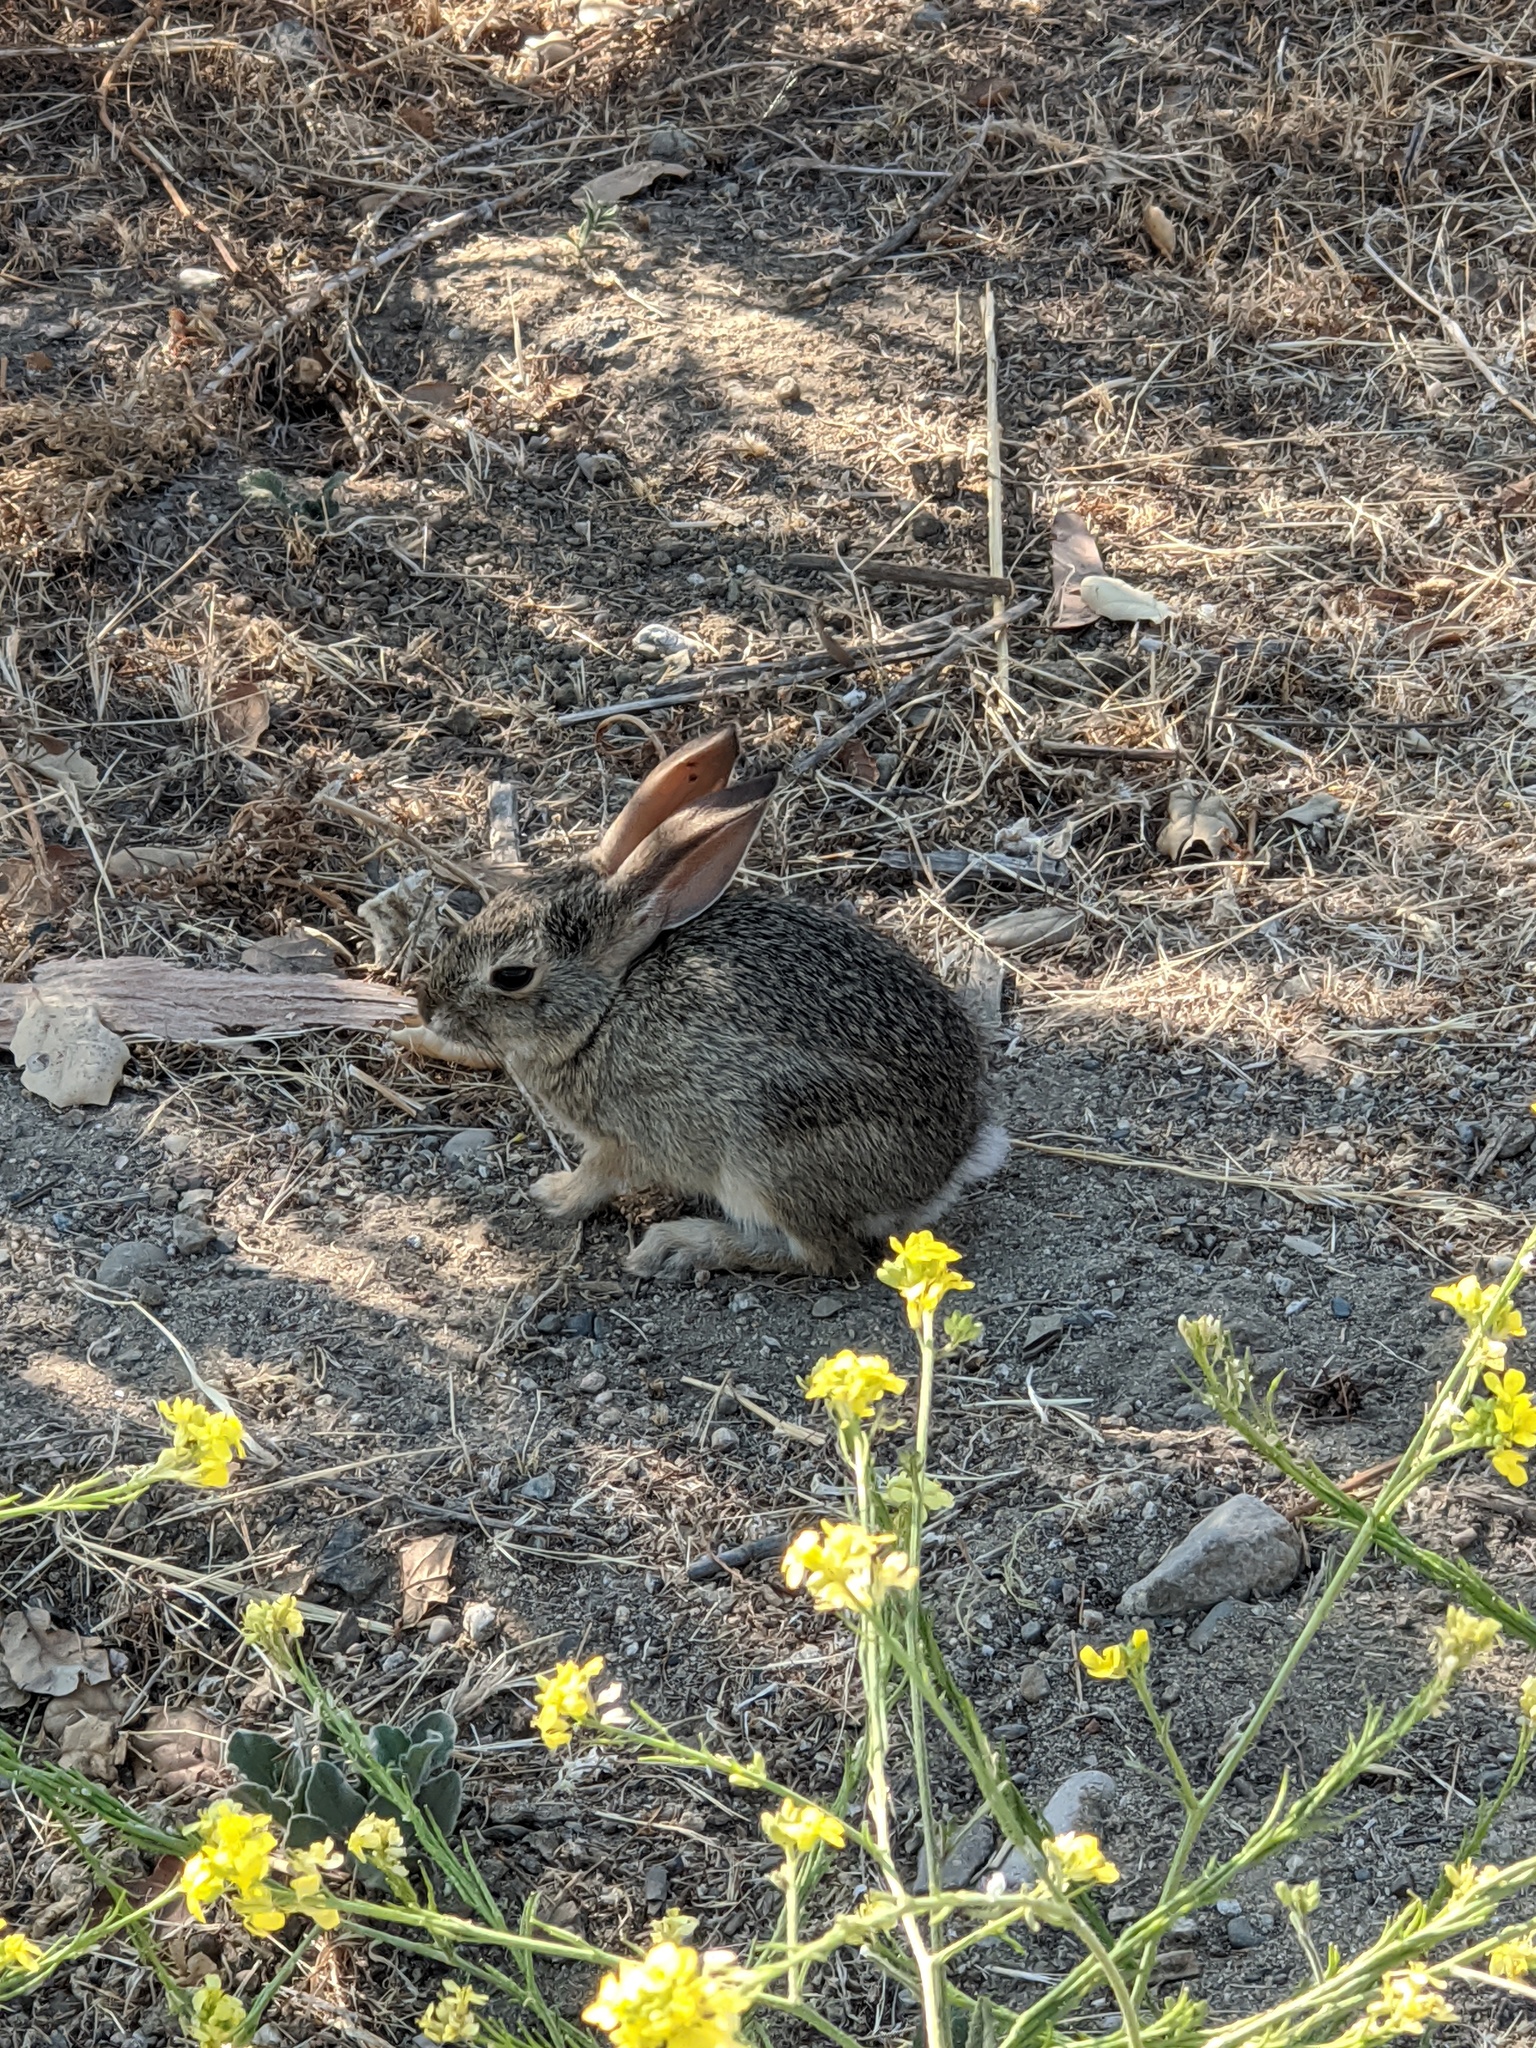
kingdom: Animalia
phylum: Chordata
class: Mammalia
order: Lagomorpha
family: Leporidae
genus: Sylvilagus
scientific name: Sylvilagus audubonii
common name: Desert cottontail
